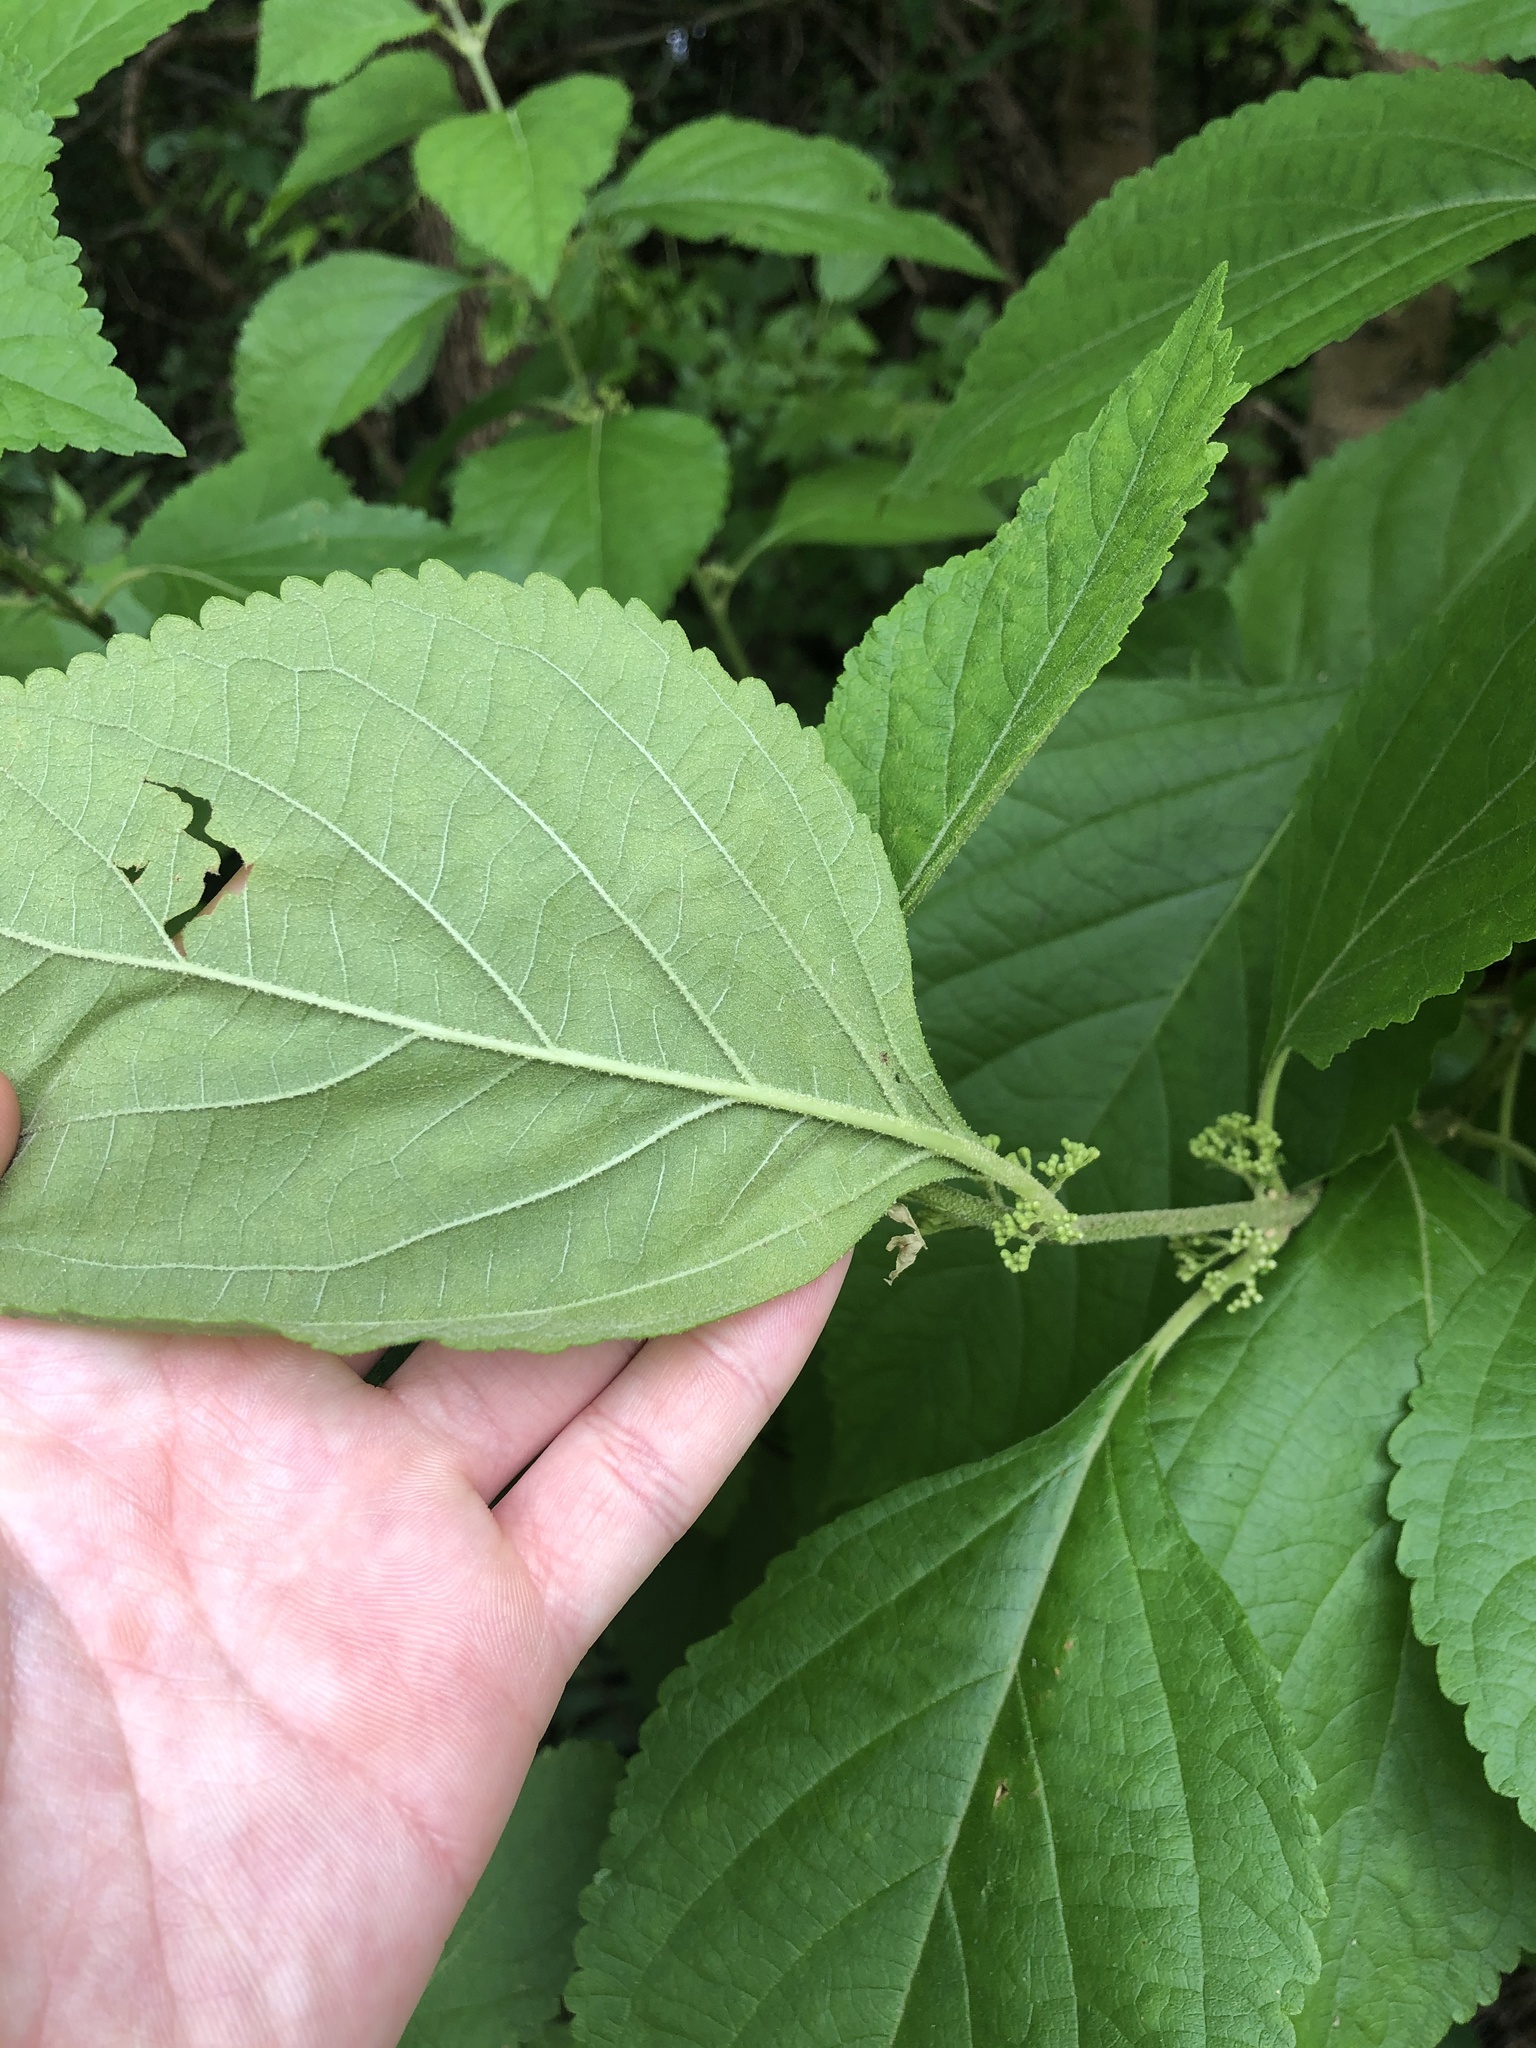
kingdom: Plantae
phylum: Tracheophyta
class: Magnoliopsida
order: Lamiales
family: Lamiaceae
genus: Callicarpa
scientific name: Callicarpa americana
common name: American beautyberry
